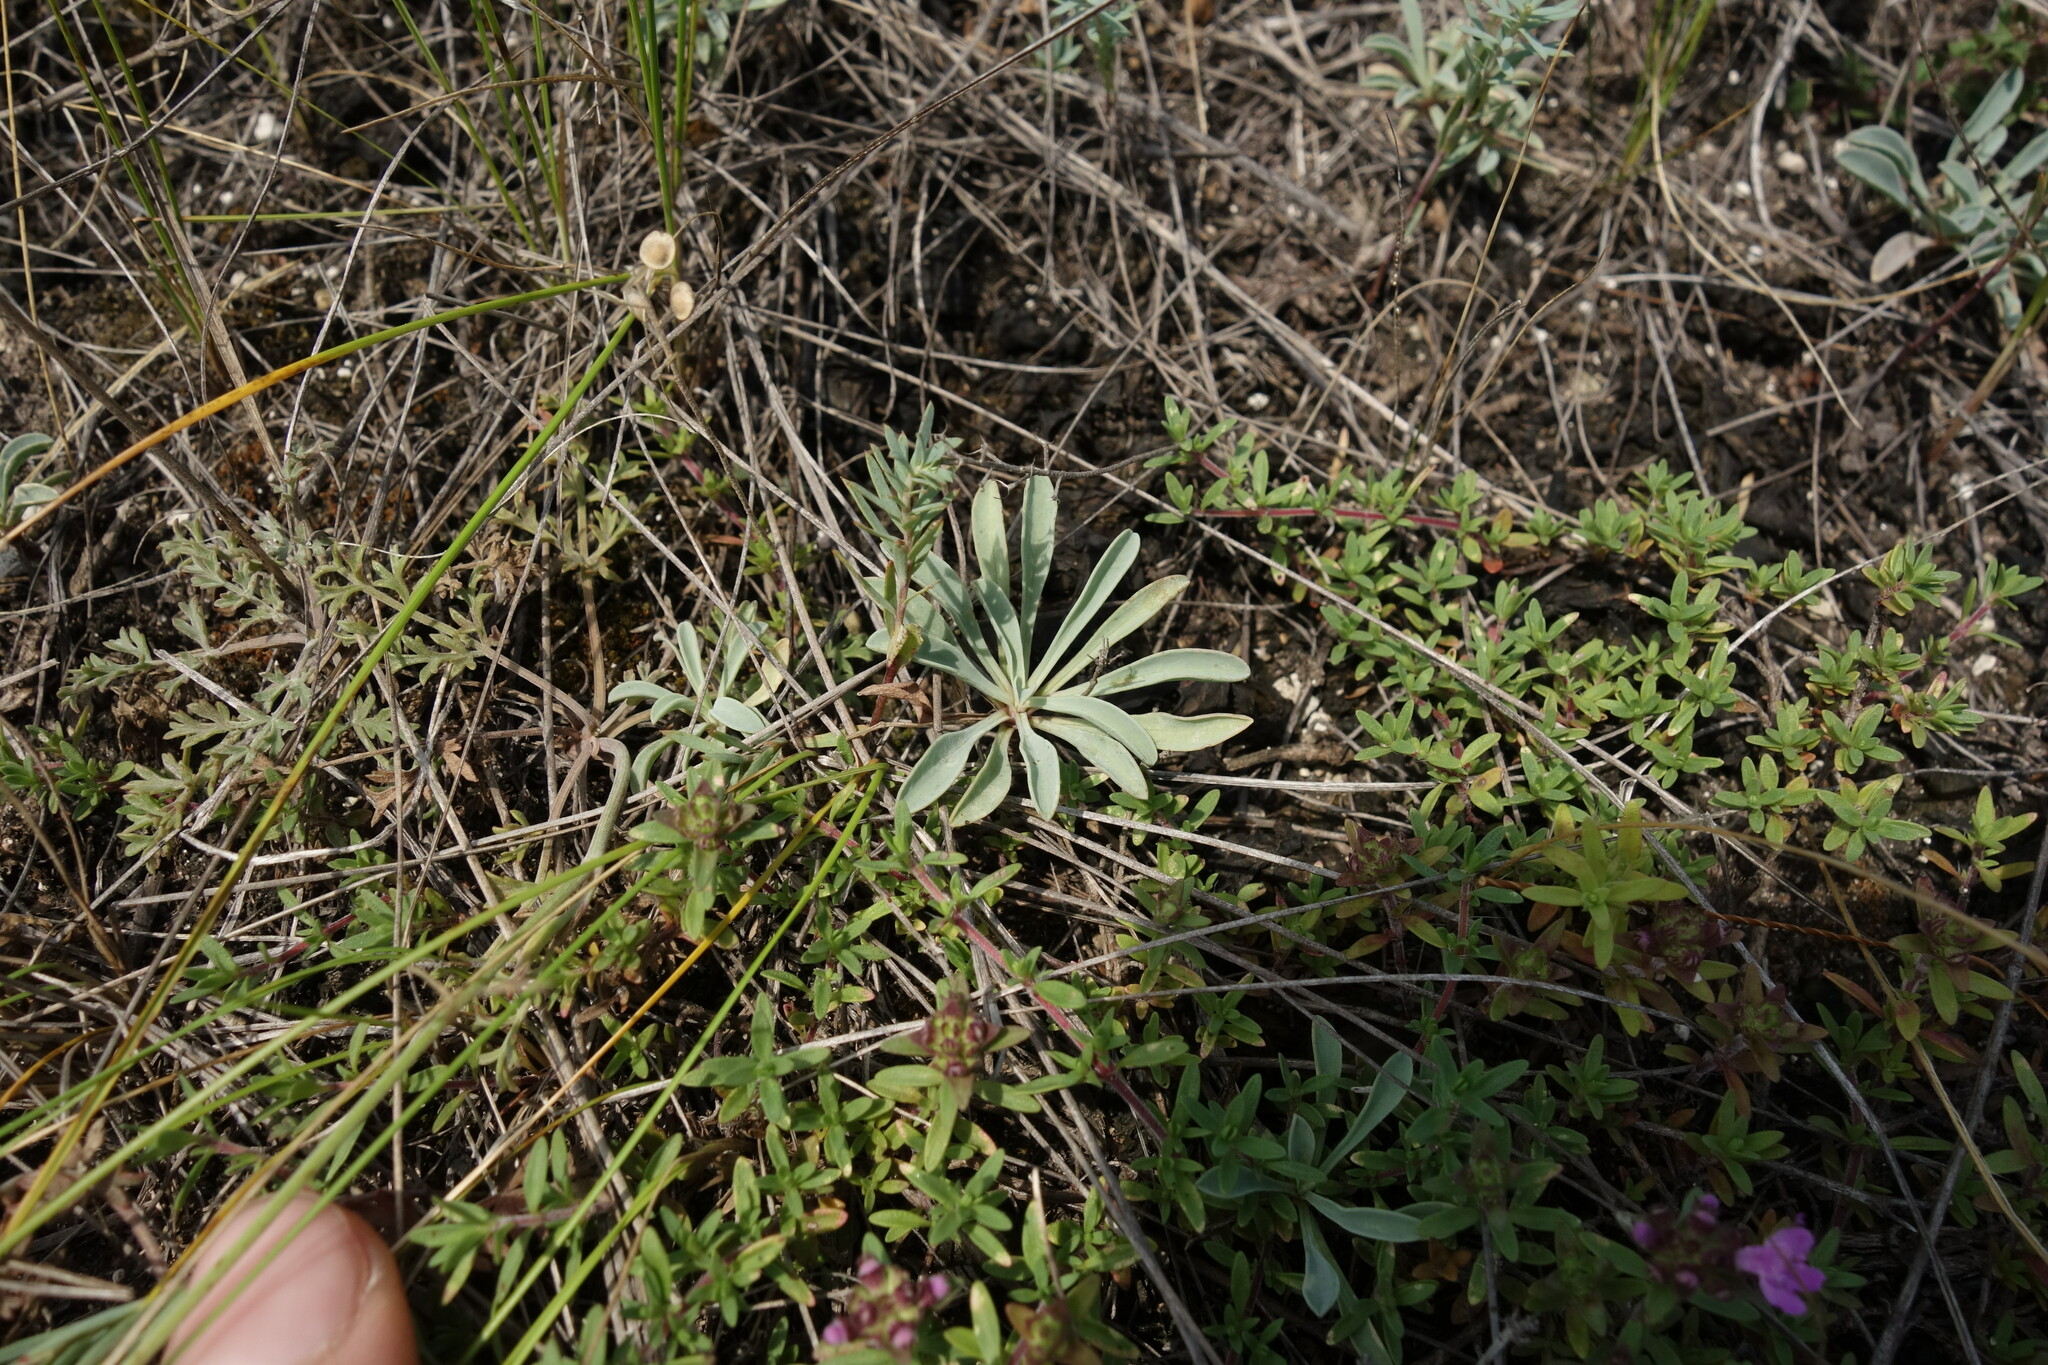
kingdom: Plantae
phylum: Tracheophyta
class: Magnoliopsida
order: Malpighiales
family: Linaceae
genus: Linum
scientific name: Linum ucranicum
